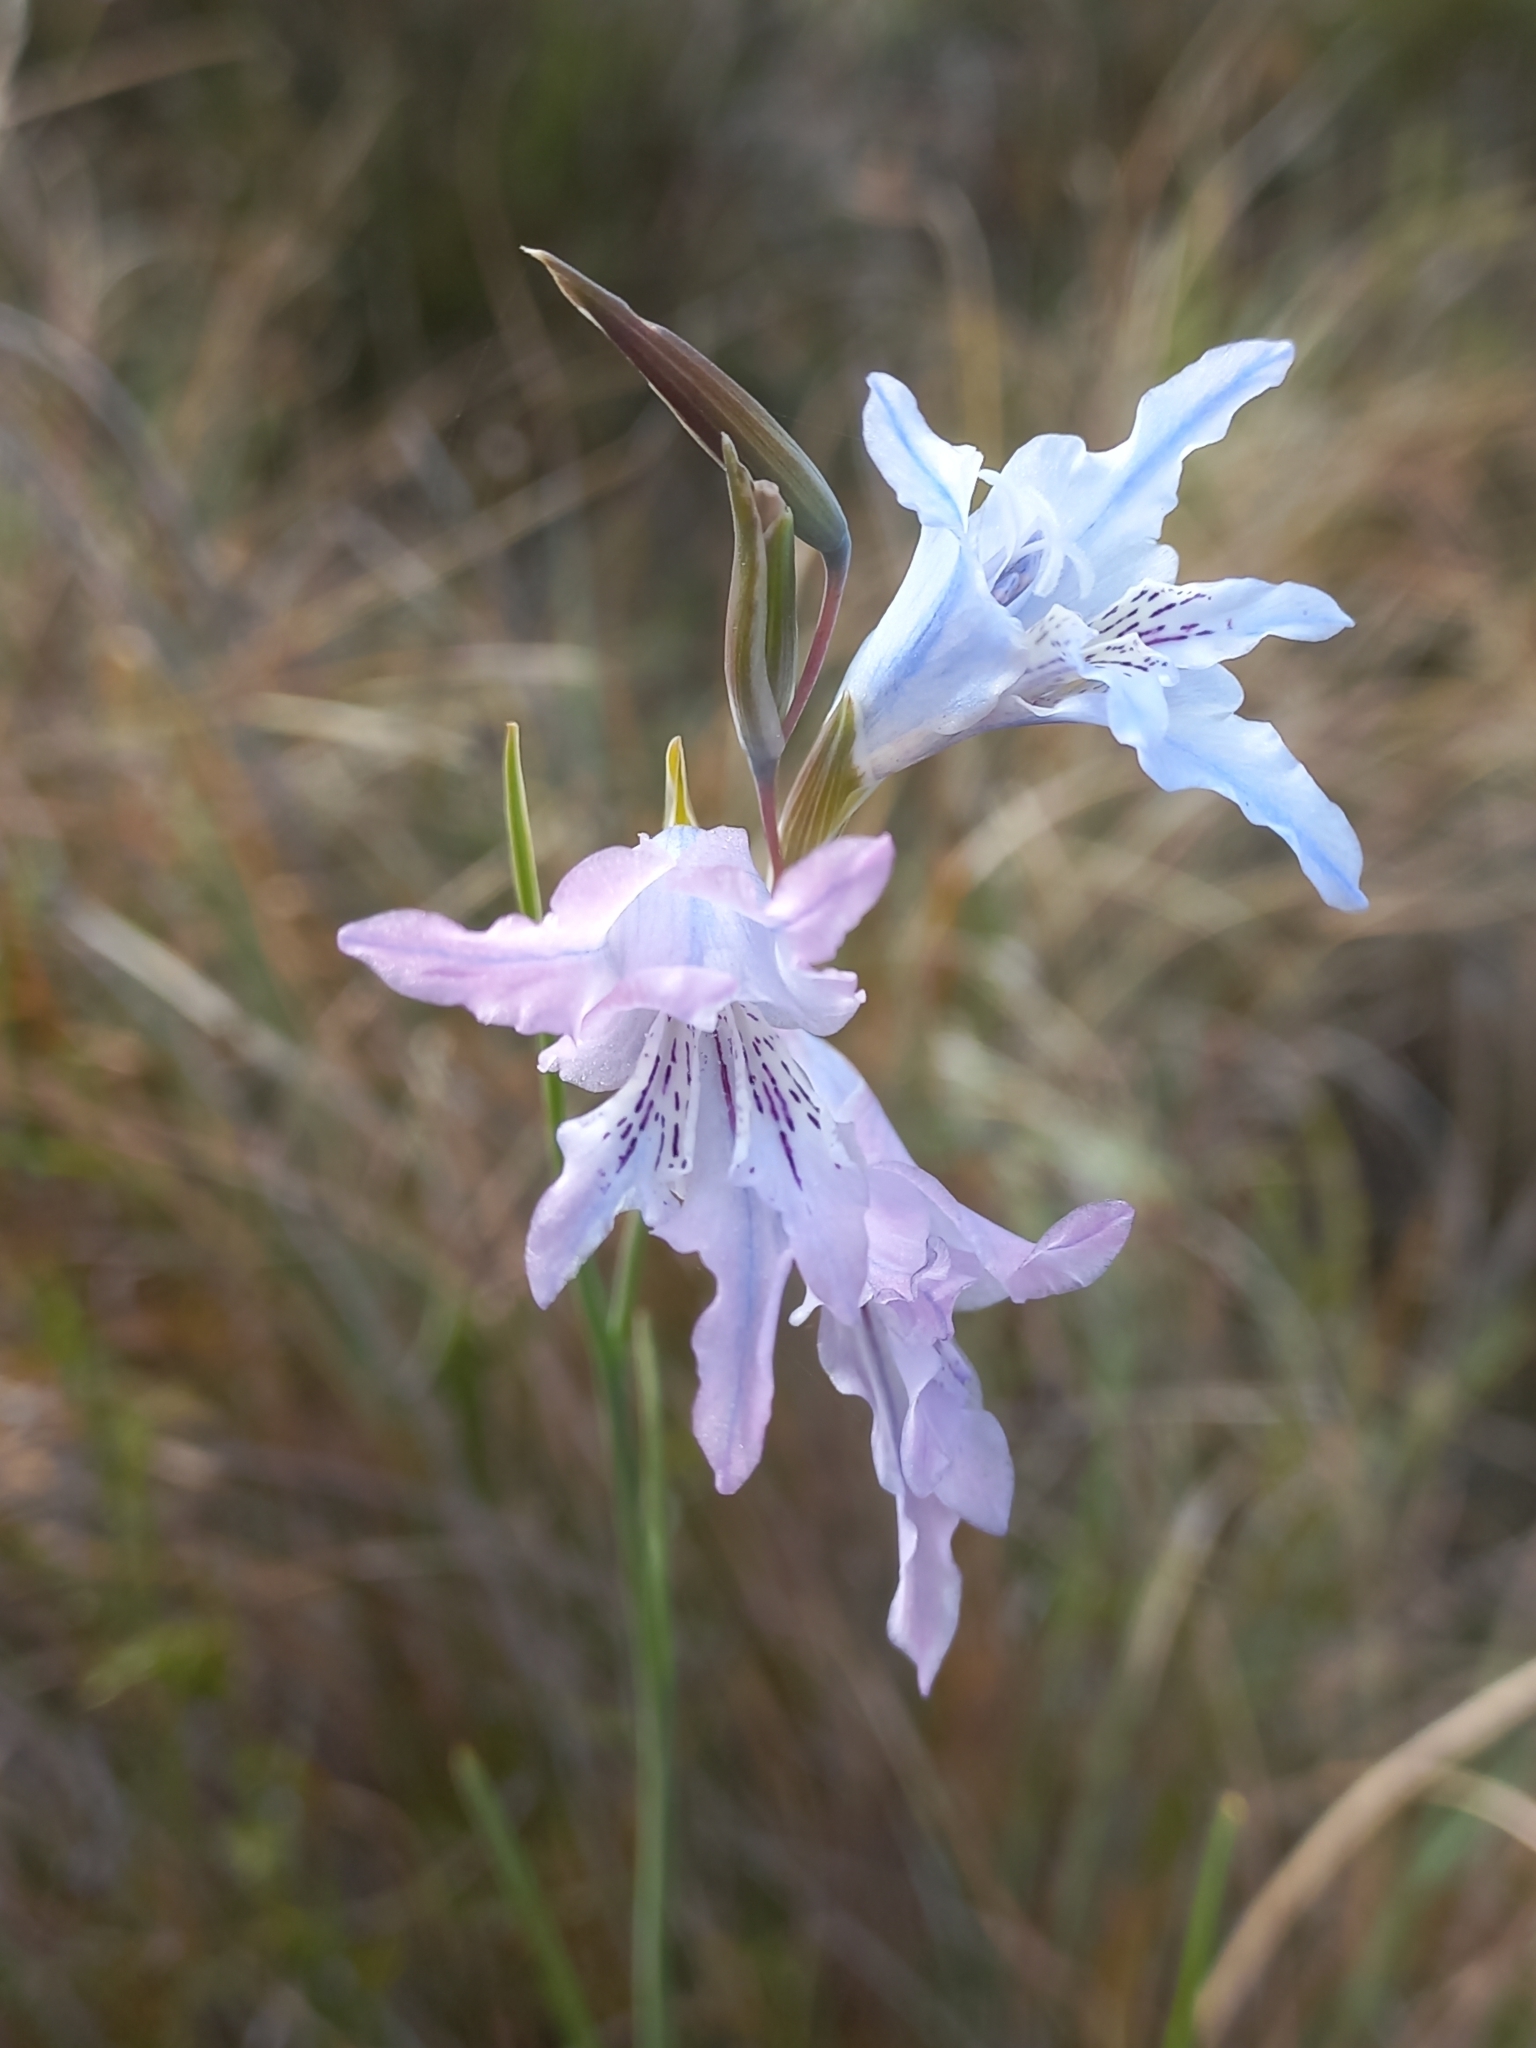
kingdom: Plantae
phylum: Tracheophyta
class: Liliopsida
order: Asparagales
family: Iridaceae
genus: Gladiolus
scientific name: Gladiolus gracilis
